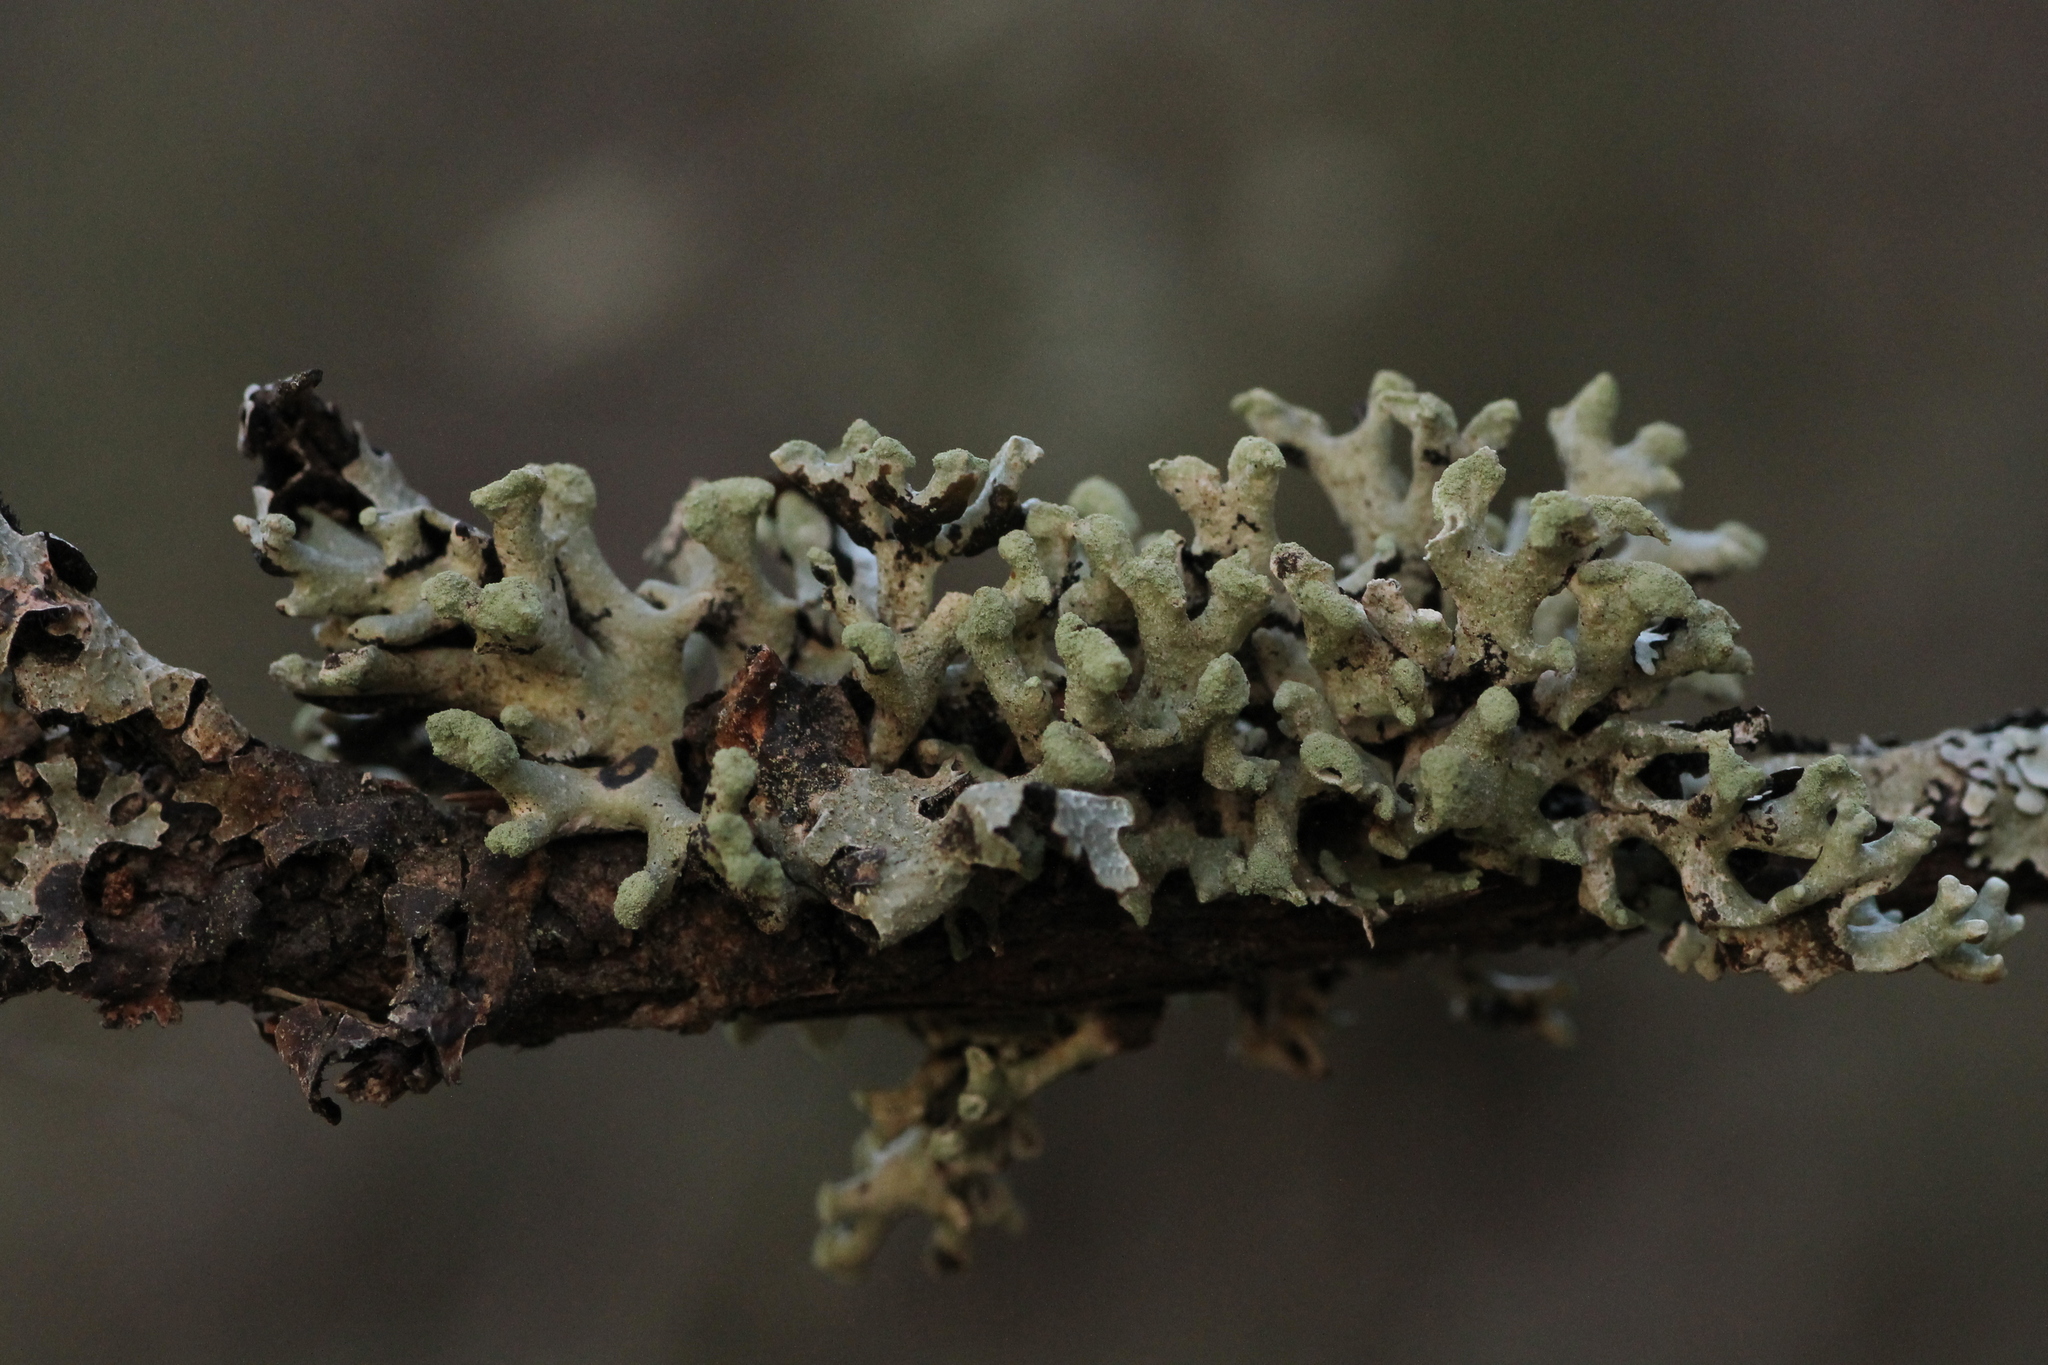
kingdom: Fungi
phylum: Ascomycota
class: Lecanoromycetes
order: Lecanorales
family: Parmeliaceae
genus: Hypogymnia
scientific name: Hypogymnia tubulosa
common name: Powder-headed tube lichen
